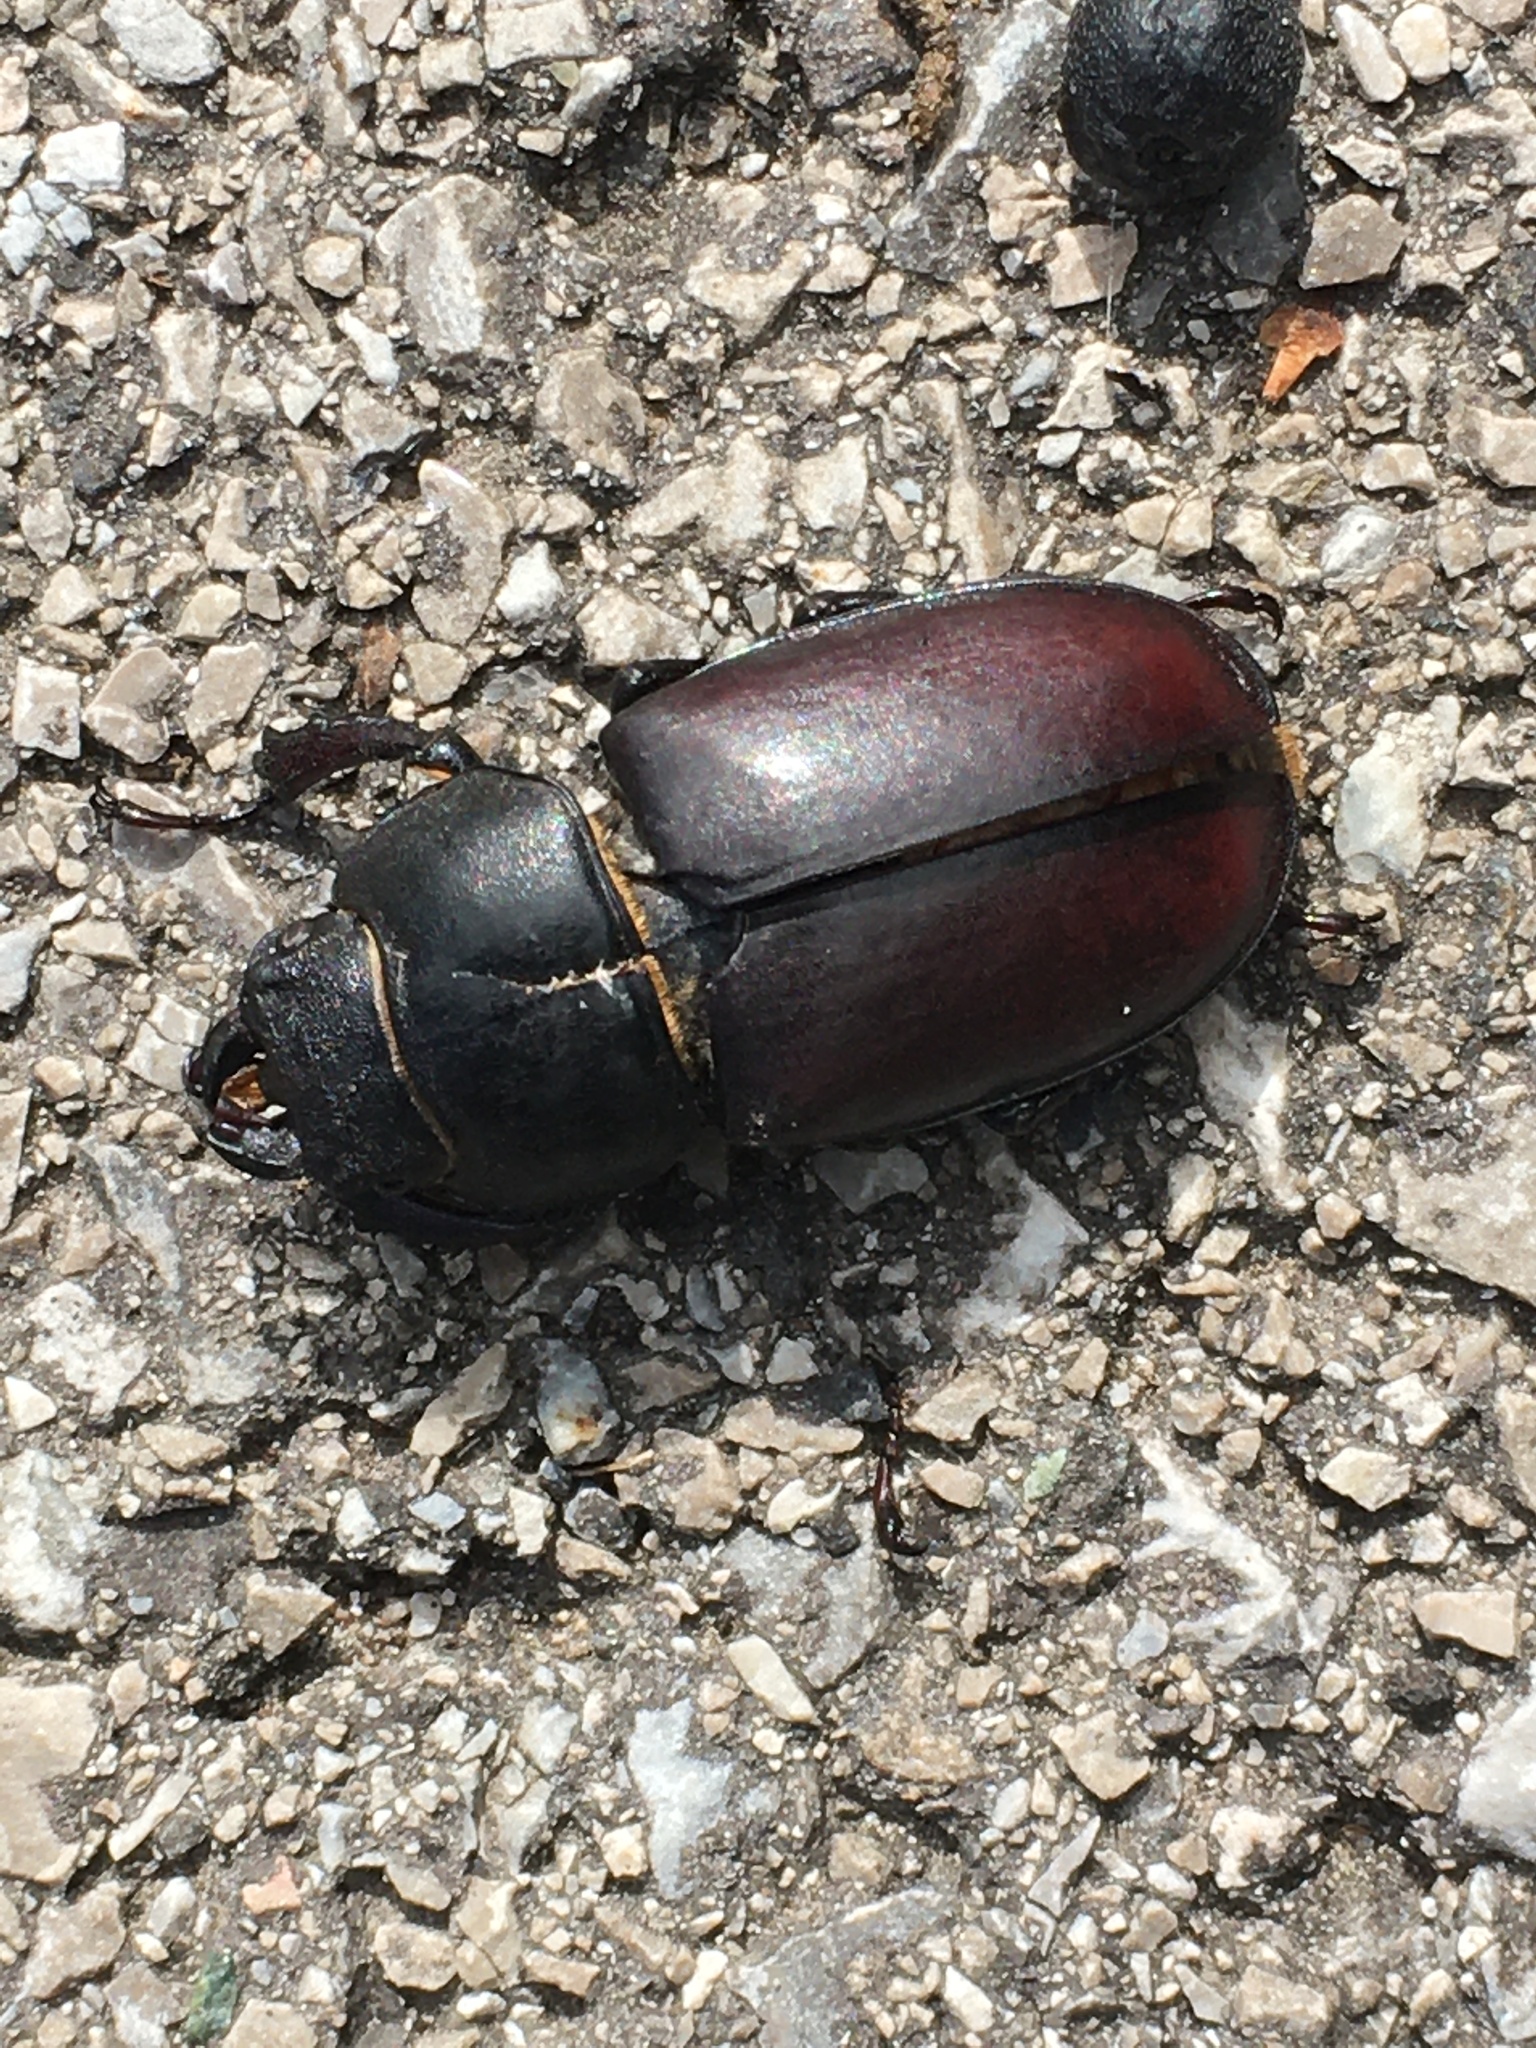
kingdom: Animalia
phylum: Arthropoda
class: Insecta
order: Coleoptera
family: Lucanidae
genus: Lucanus
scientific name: Lucanus cervus
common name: Stag beetle
